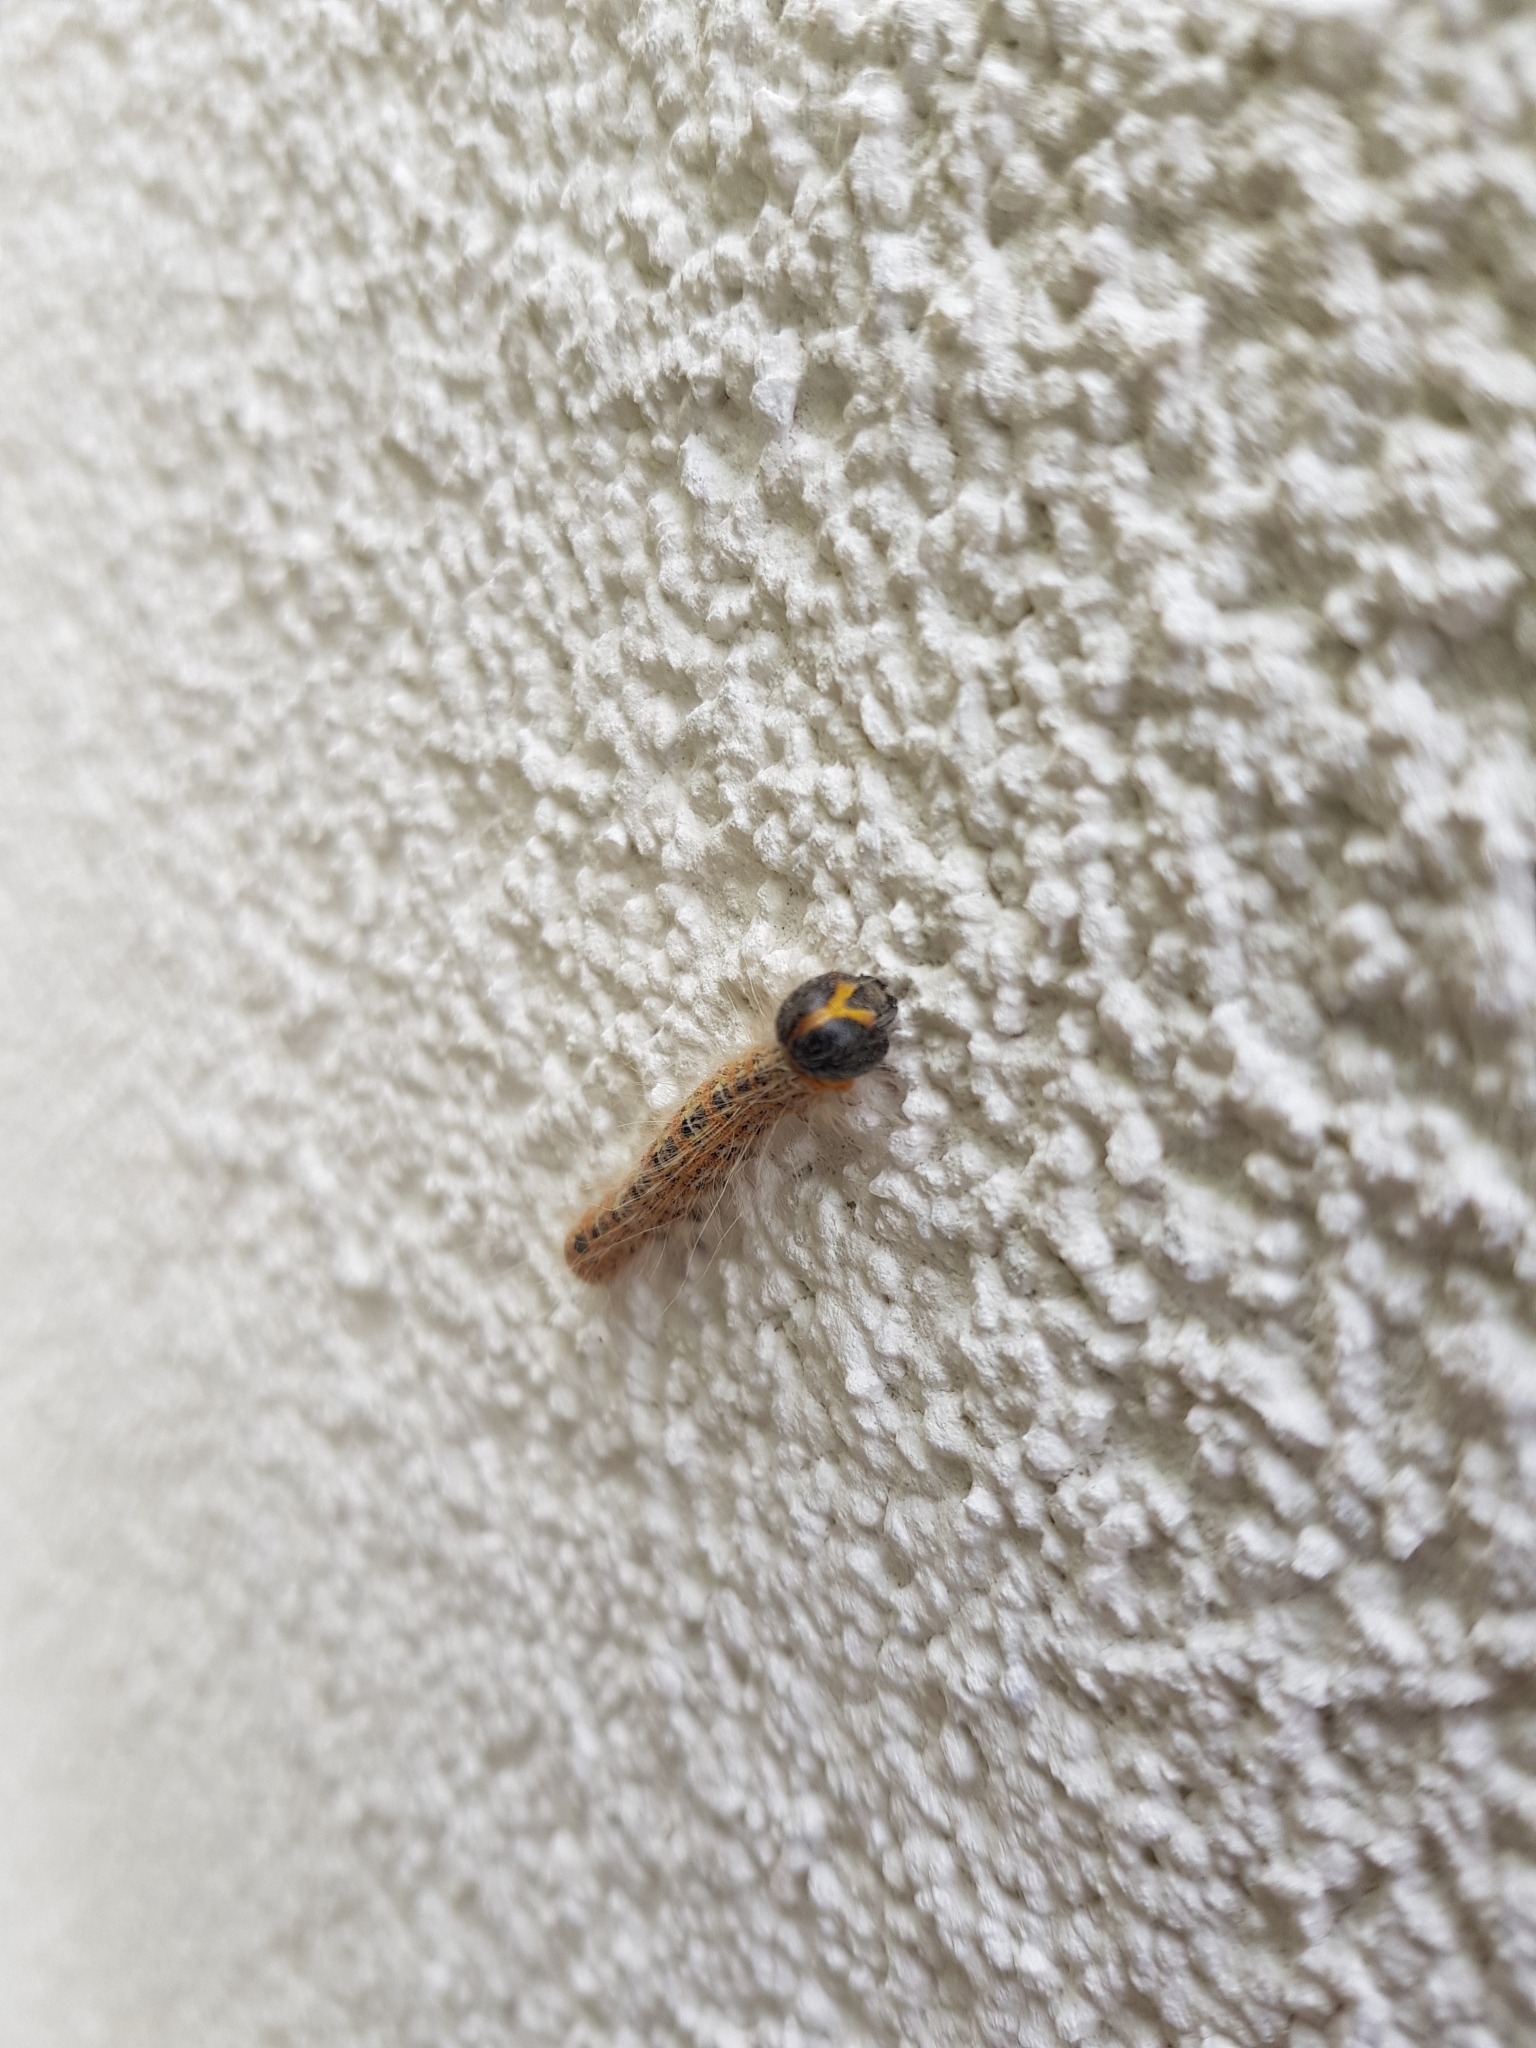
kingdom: Animalia
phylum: Arthropoda
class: Insecta
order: Lepidoptera
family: Notodontidae
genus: Phalera
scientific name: Phalera bucephala
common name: Buff-tip
